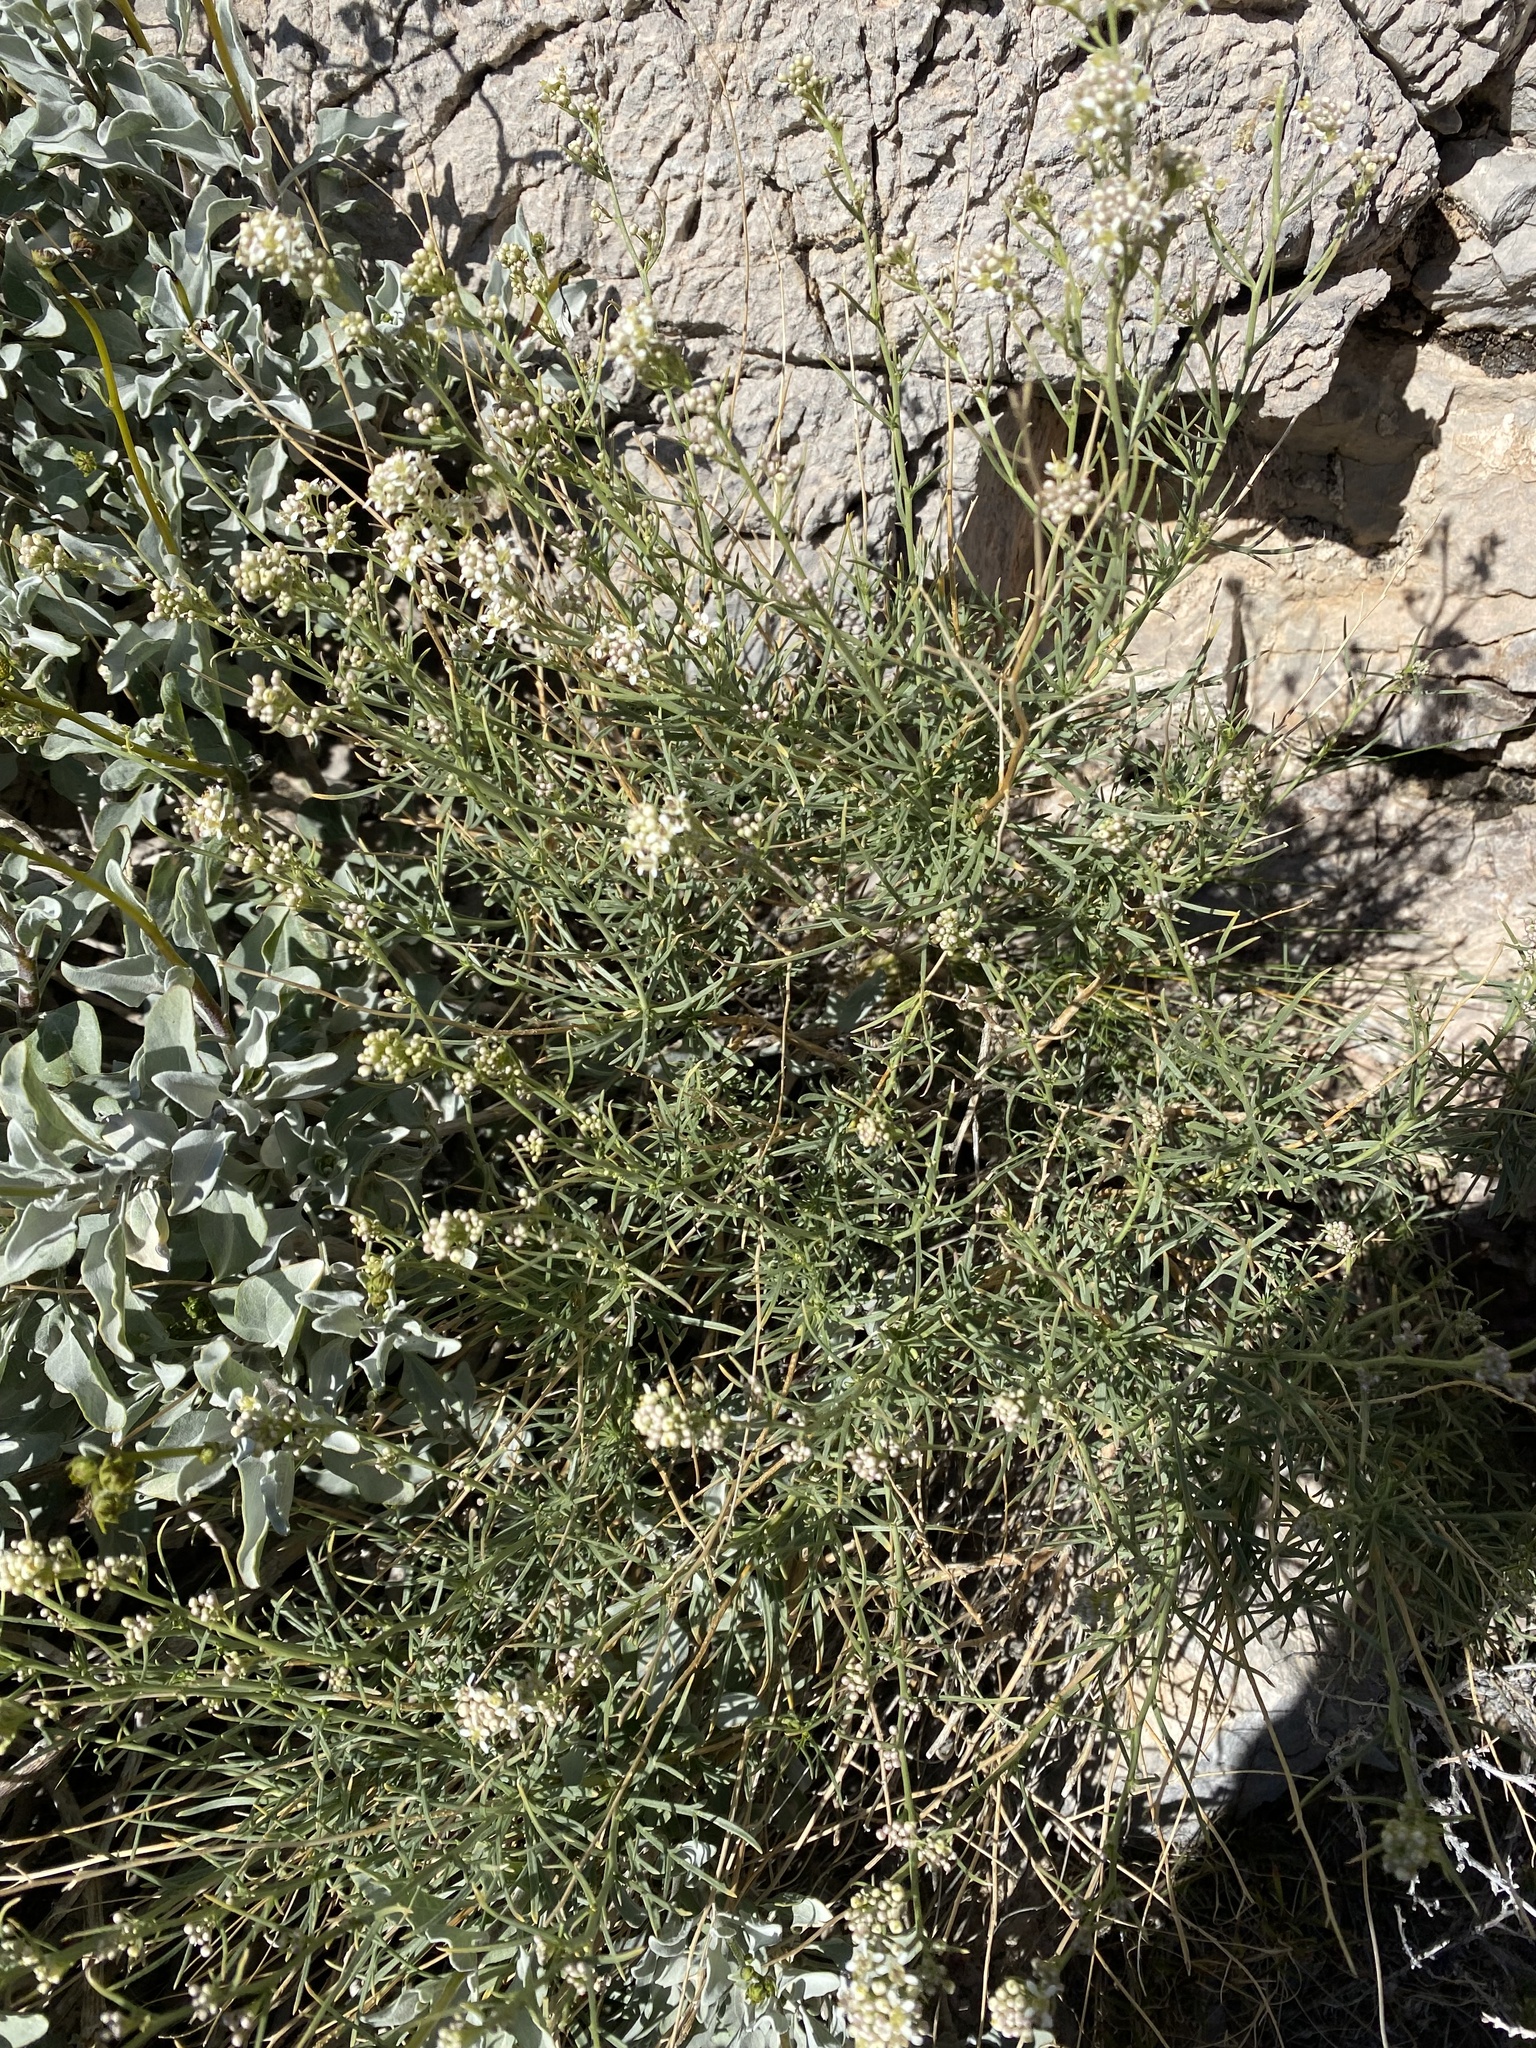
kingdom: Plantae
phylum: Tracheophyta
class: Magnoliopsida
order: Brassicales
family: Brassicaceae
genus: Lepidium
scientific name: Lepidium fremontii
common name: Fremont's pepperwort
